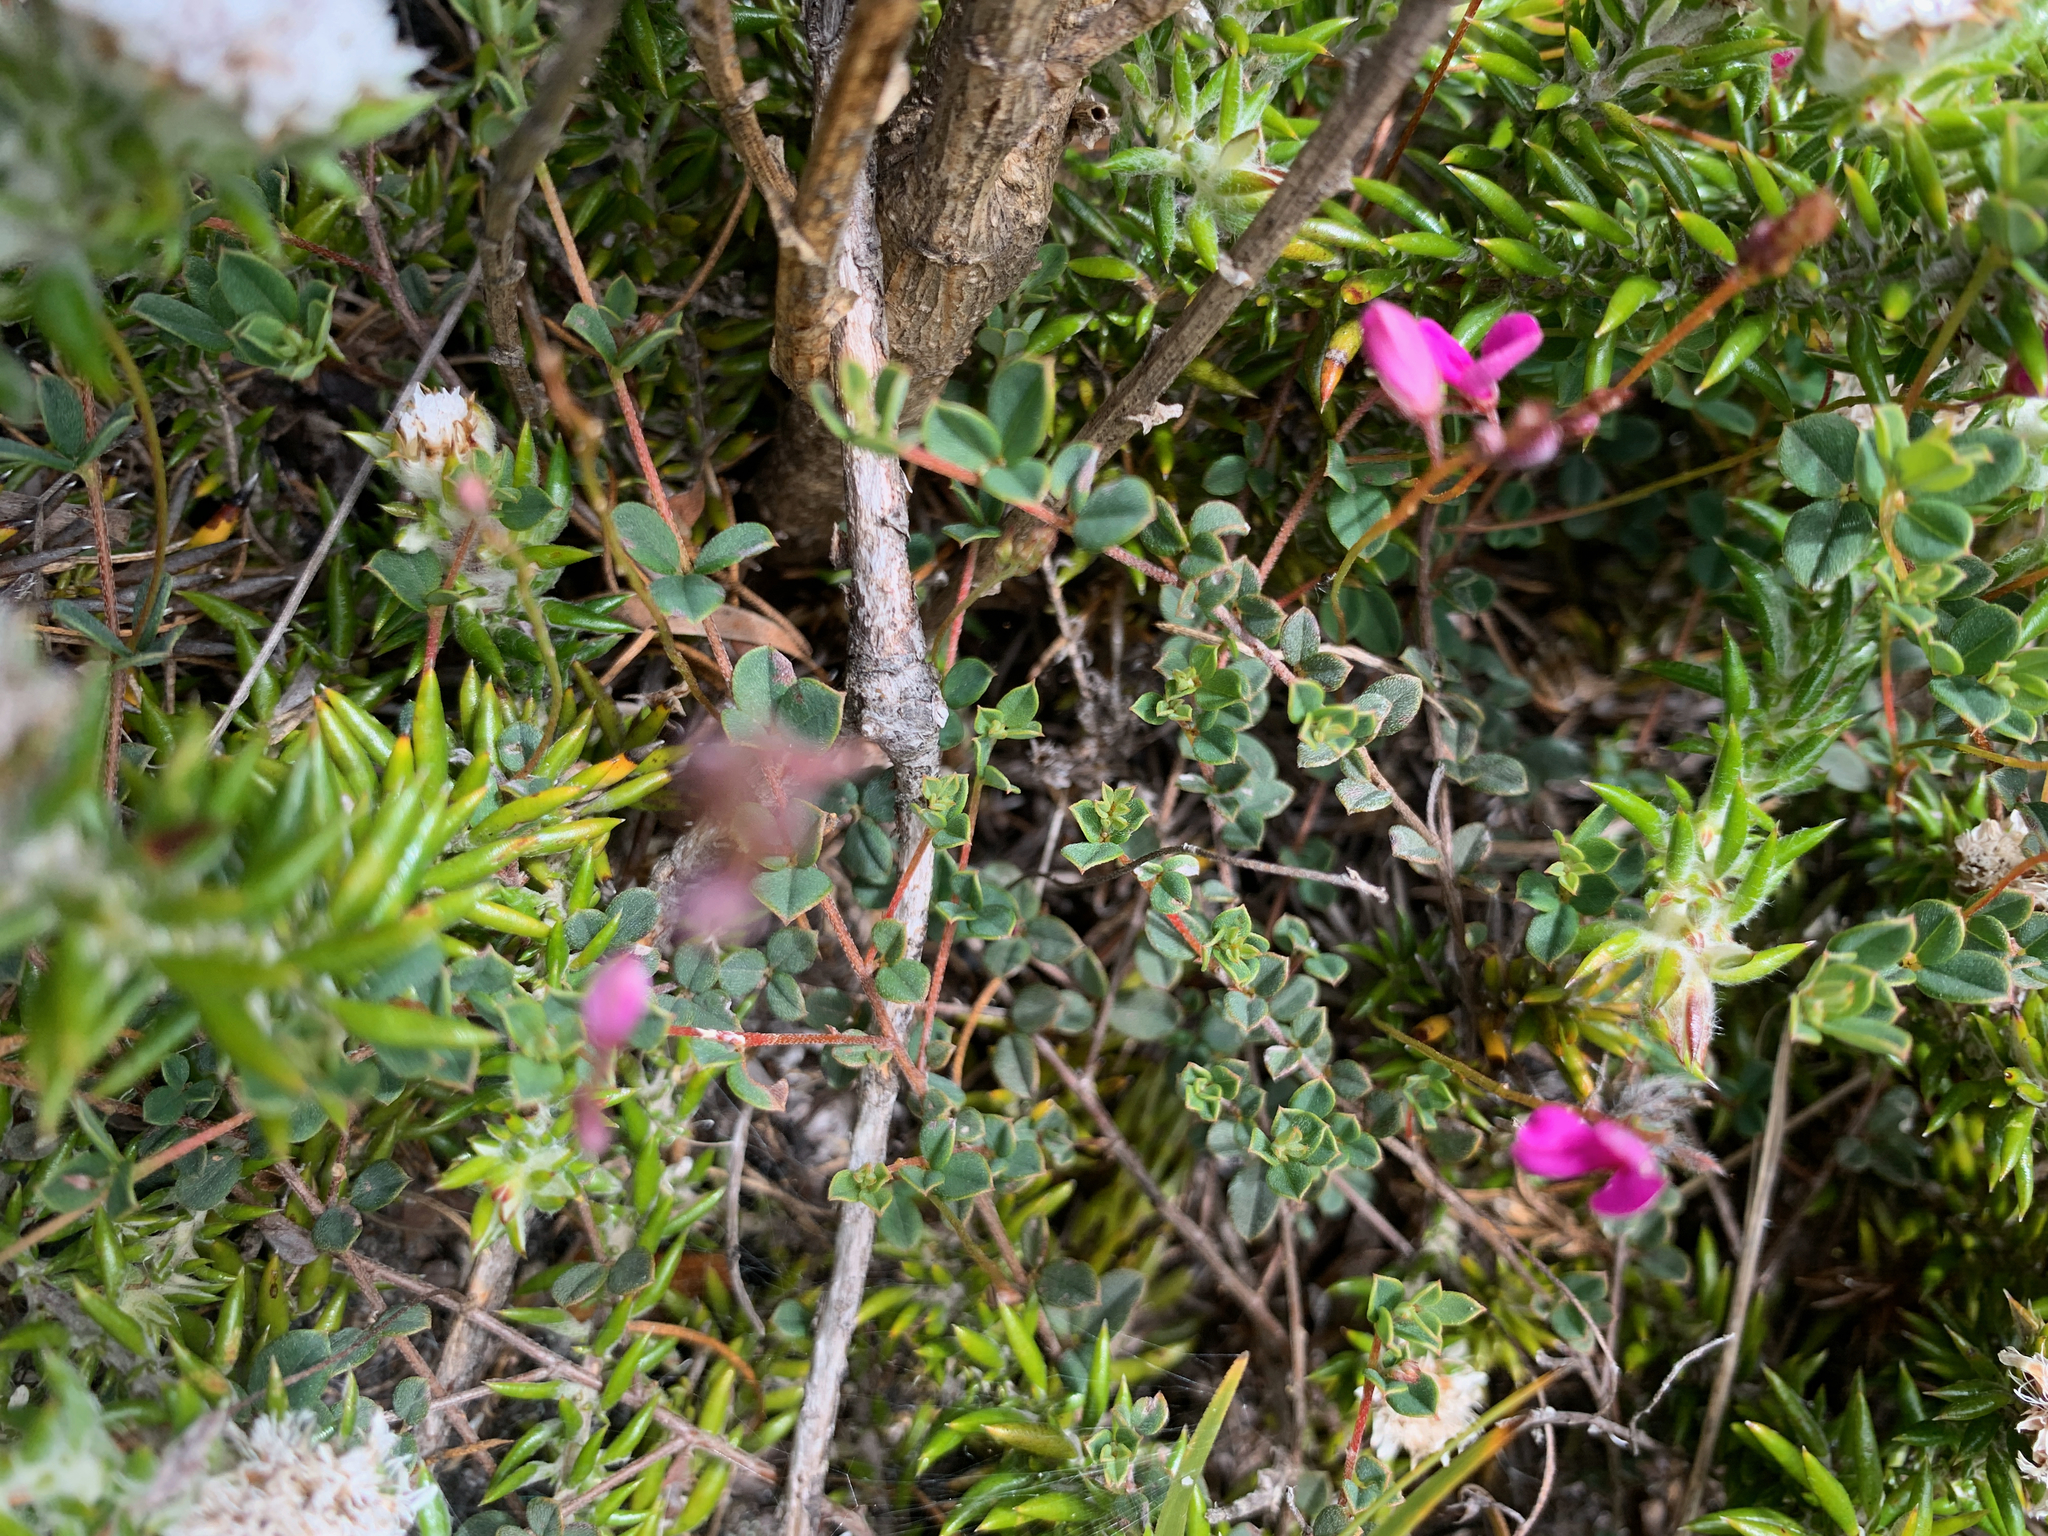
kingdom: Plantae
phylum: Tracheophyta
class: Magnoliopsida
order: Fabales
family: Fabaceae
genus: Indigofera
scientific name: Indigofera sarmentosa
